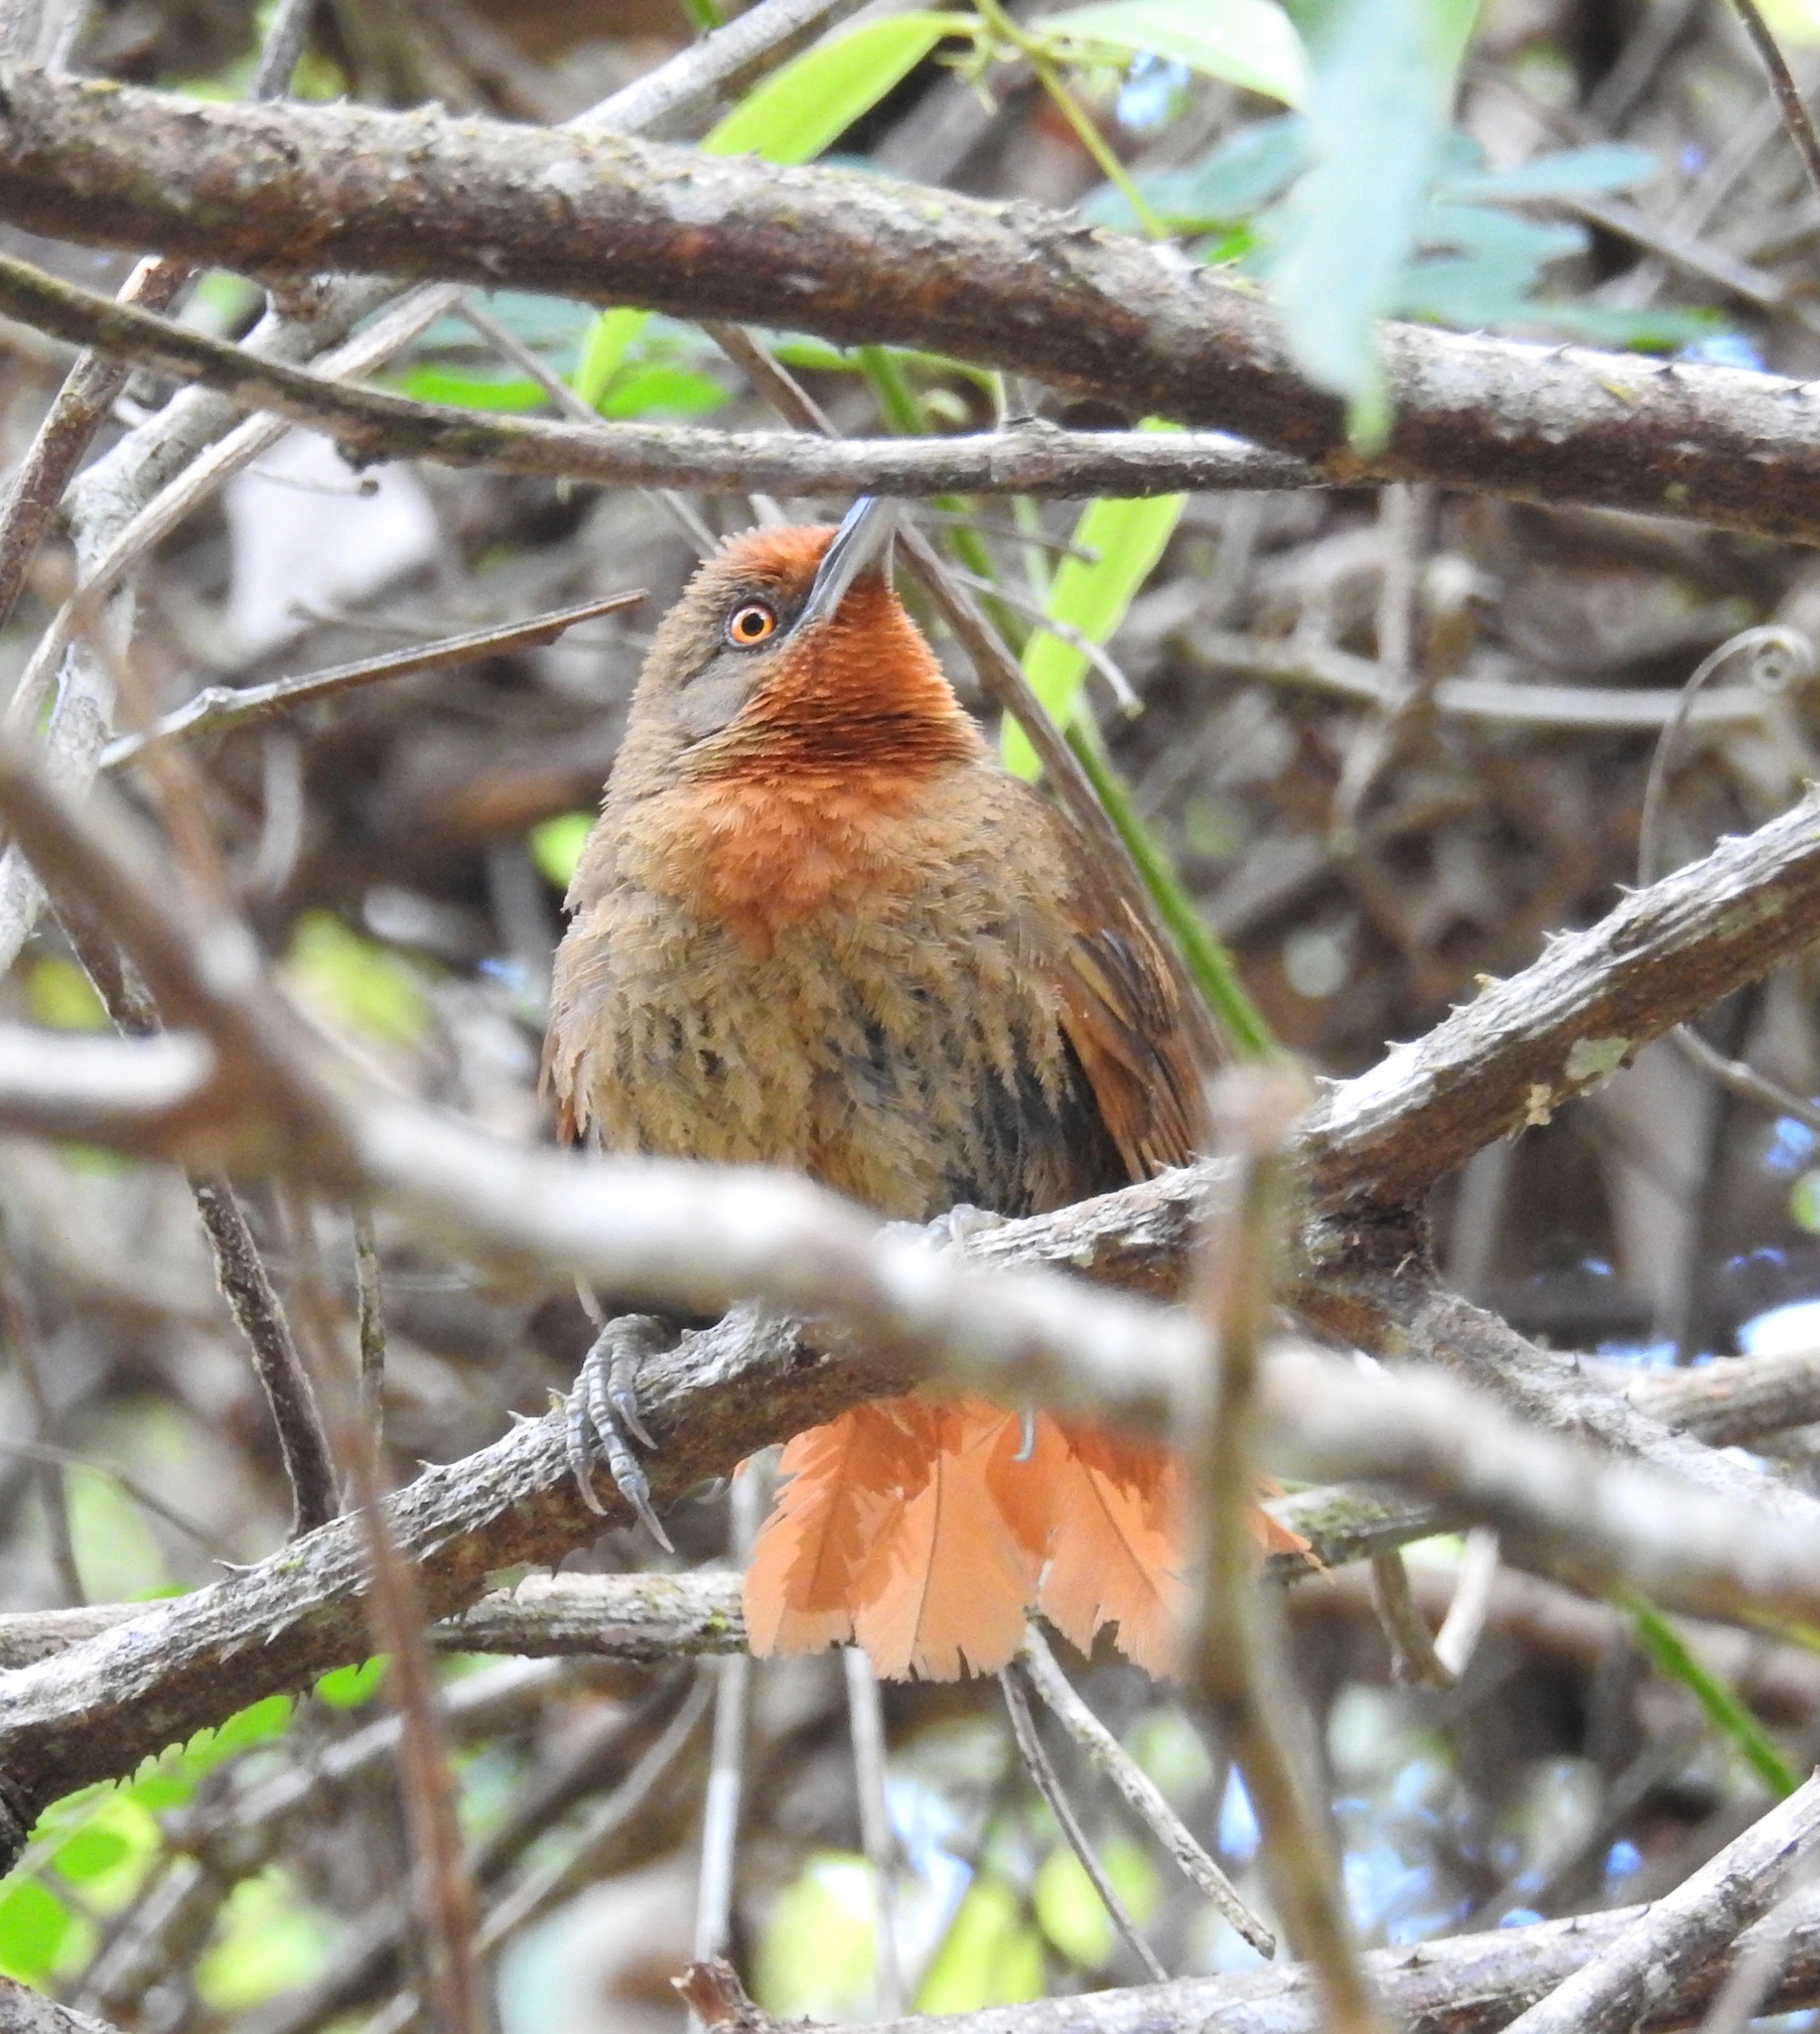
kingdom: Animalia
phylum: Chordata
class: Aves
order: Passeriformes
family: Furnariidae
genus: Phacellodomus
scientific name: Phacellodomus erythrophthalmus
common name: Orange-eyed thornbird
